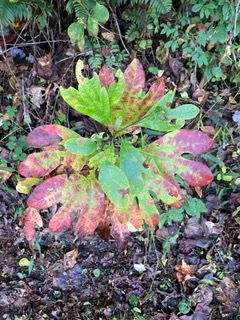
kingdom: Plantae
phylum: Tracheophyta
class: Magnoliopsida
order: Laurales
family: Lauraceae
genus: Sassafras
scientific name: Sassafras albidum
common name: Sassafras
